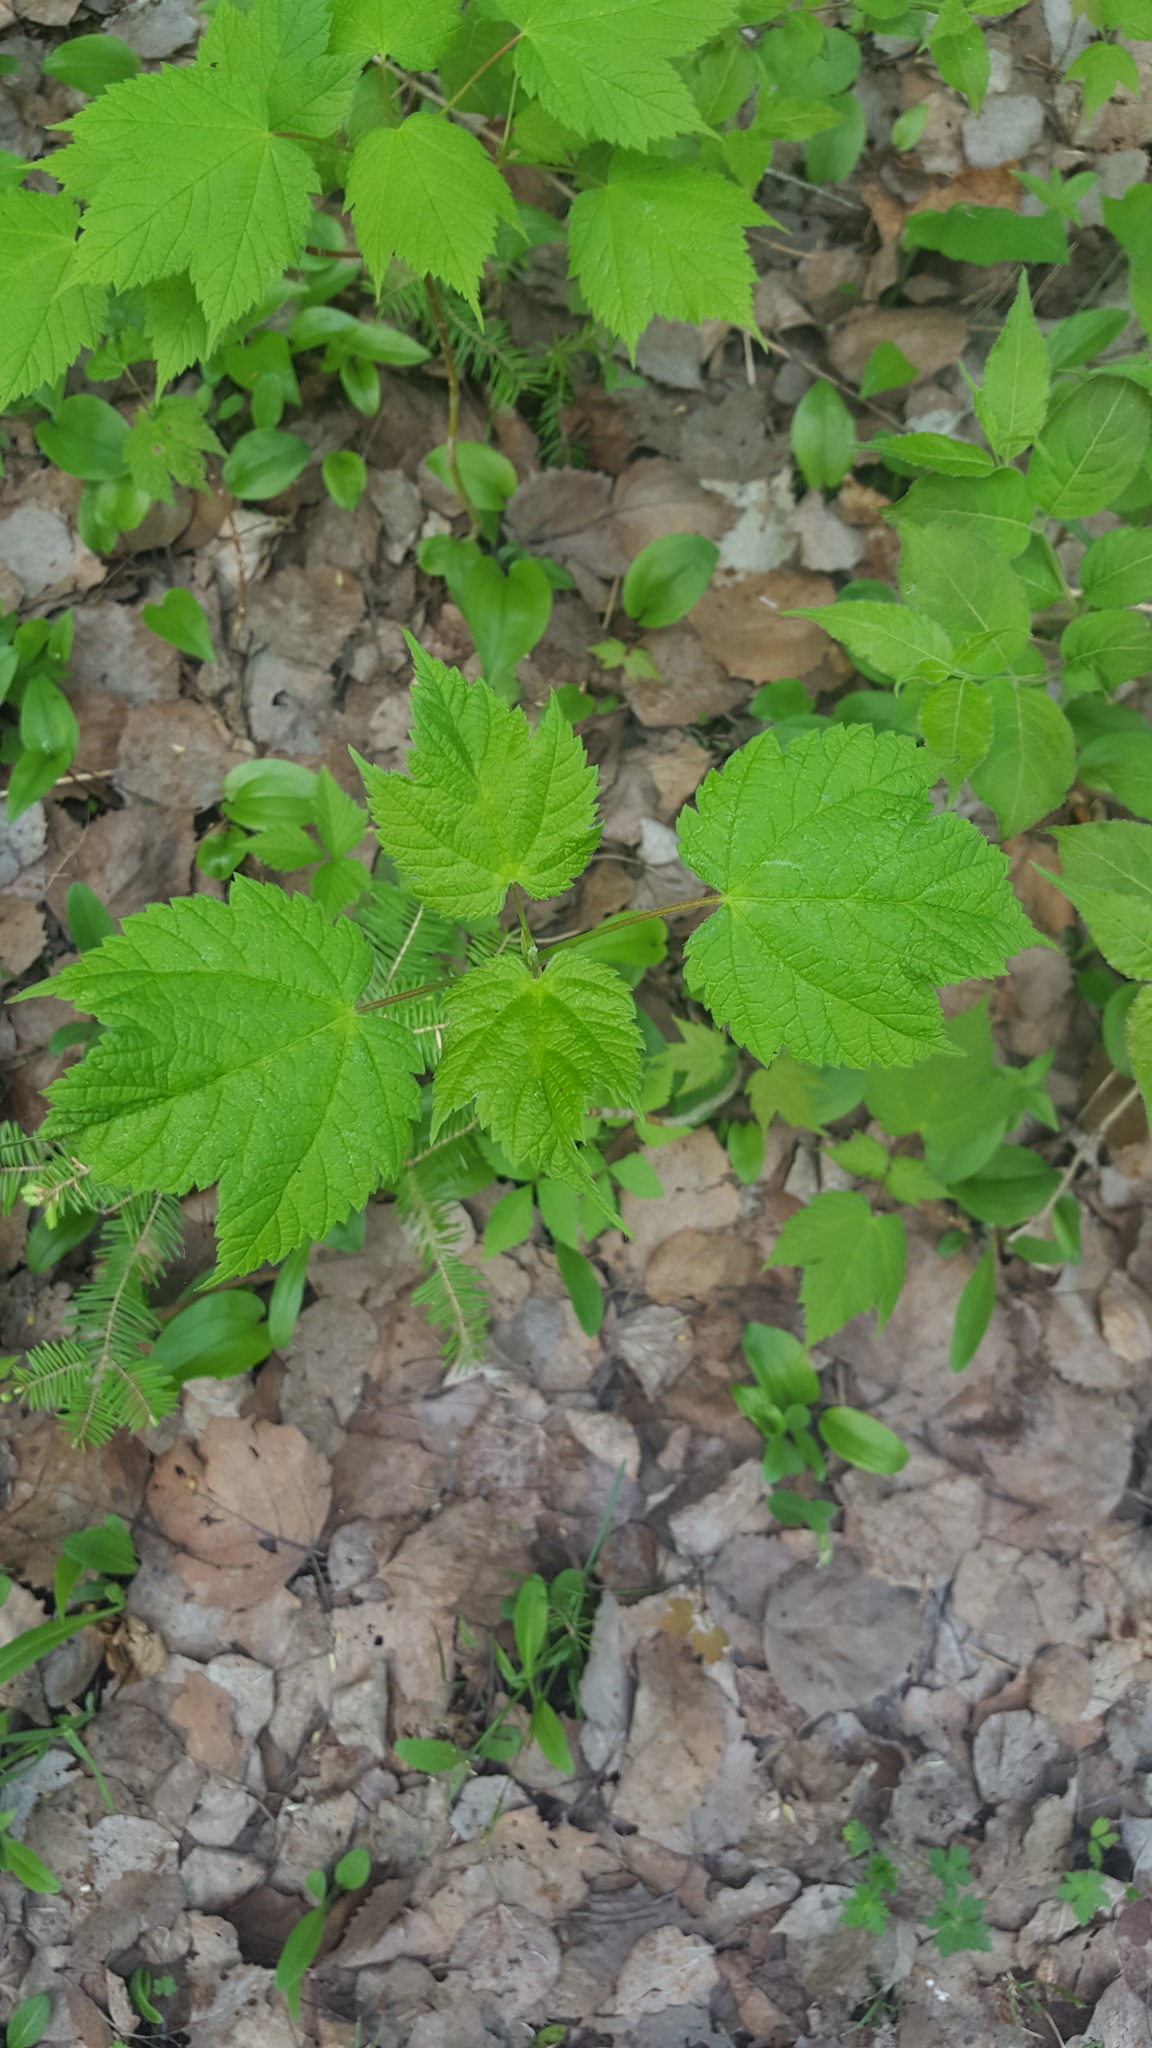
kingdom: Plantae
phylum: Tracheophyta
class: Magnoliopsida
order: Sapindales
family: Sapindaceae
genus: Acer
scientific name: Acer spicatum
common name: Mountain maple
